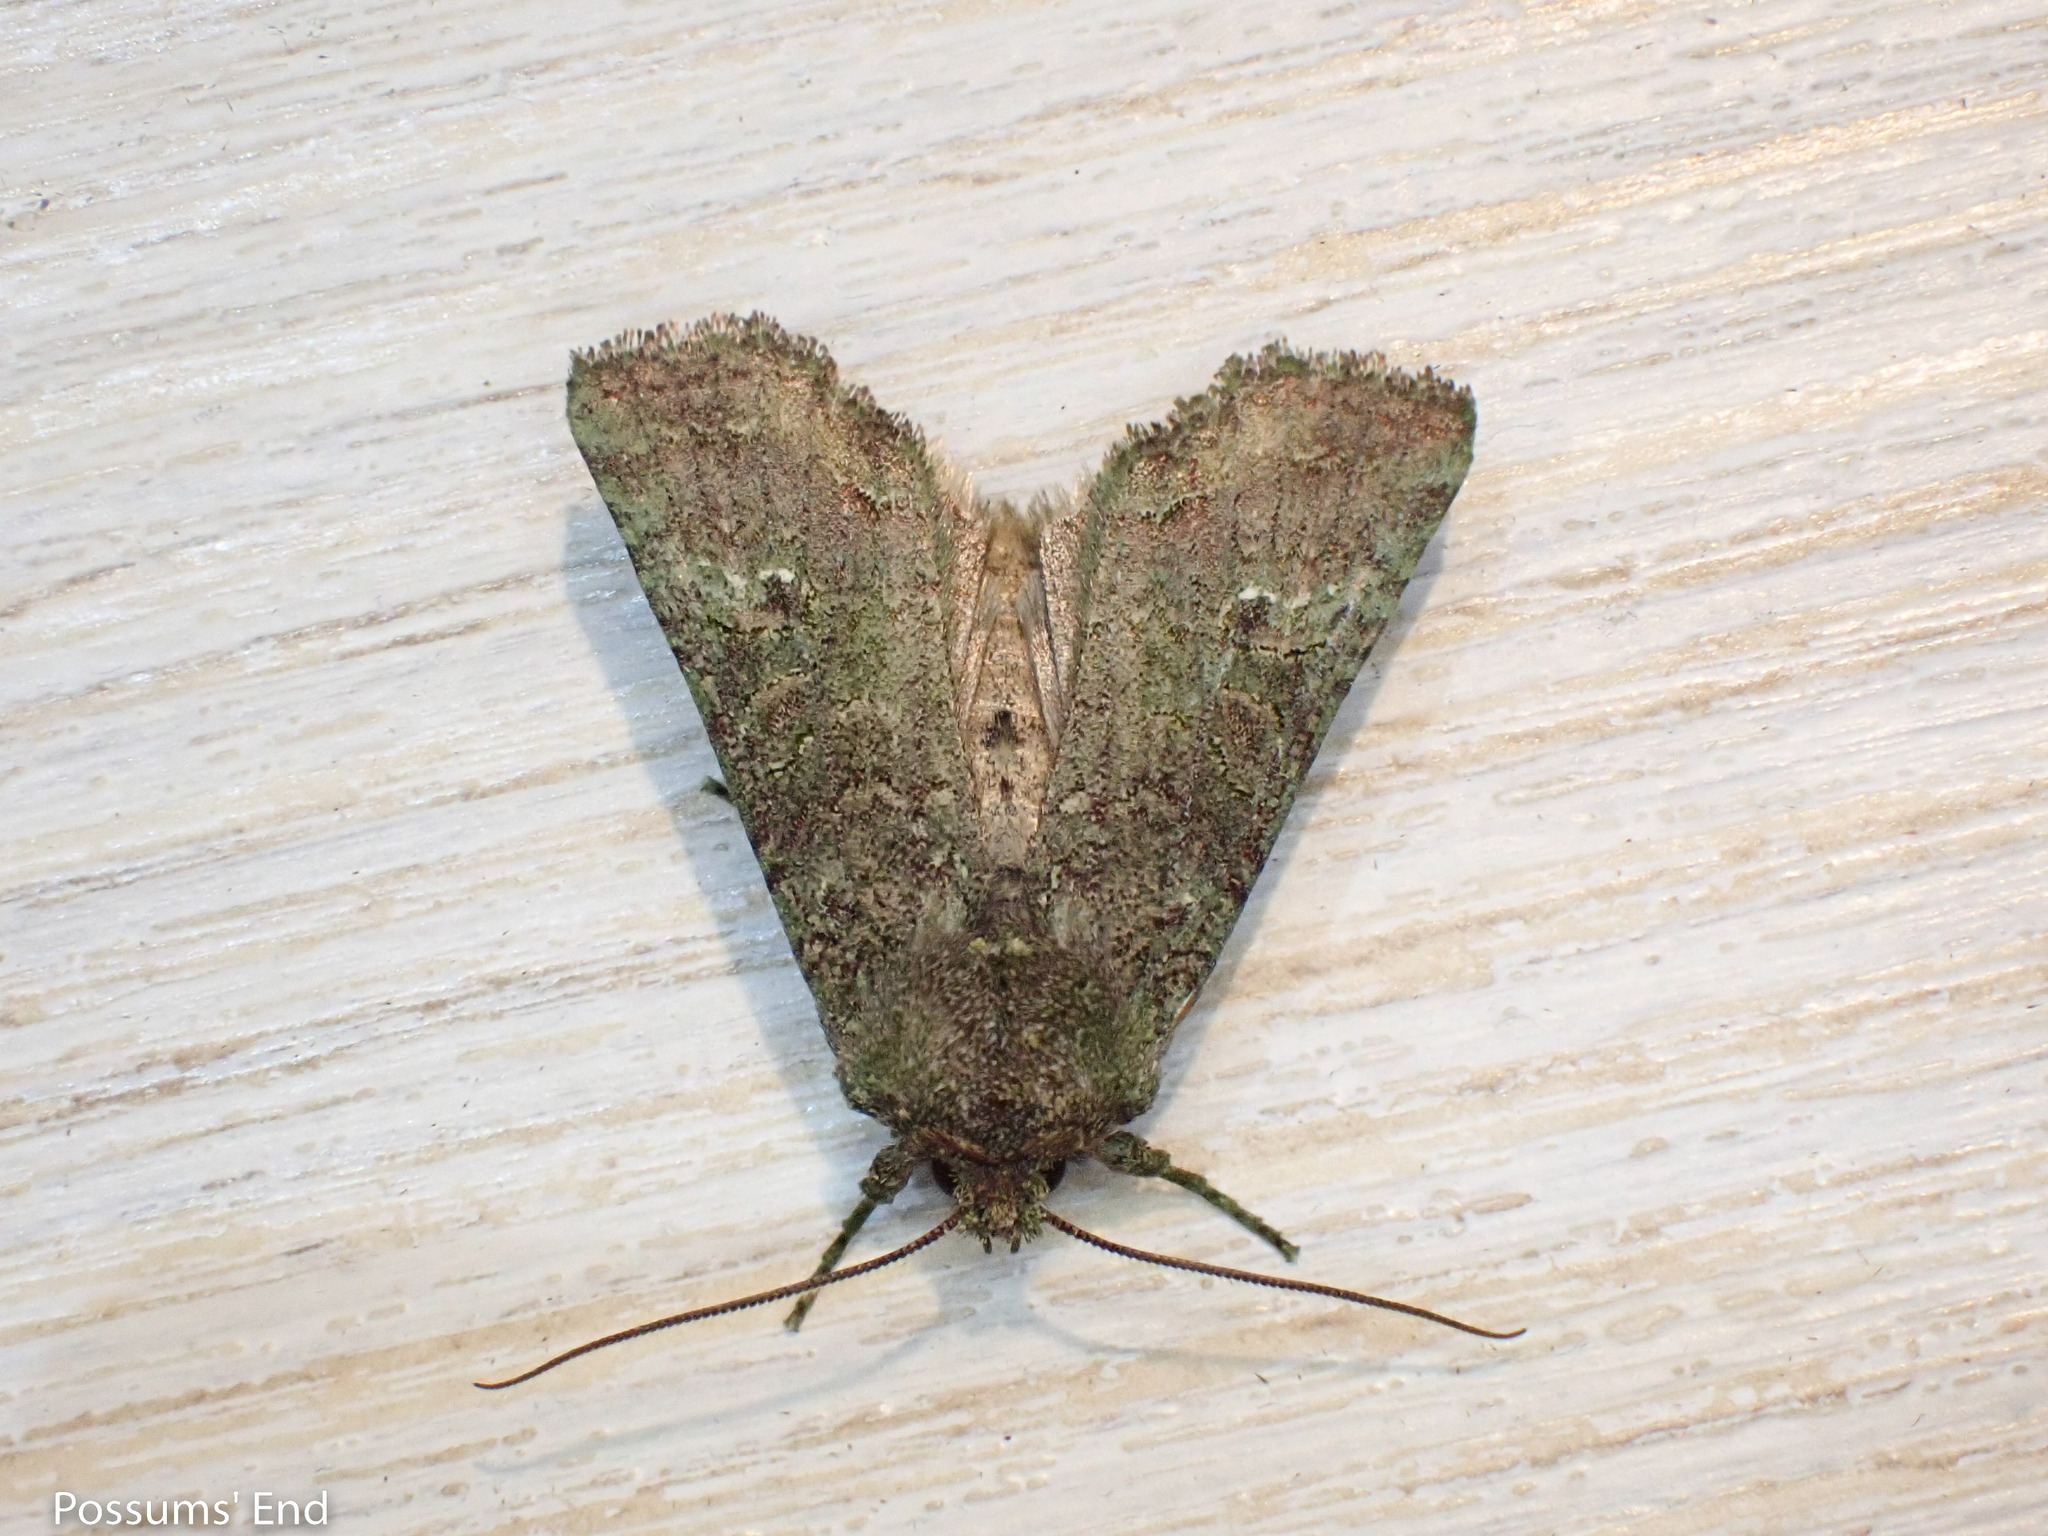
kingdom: Animalia
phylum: Arthropoda
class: Insecta
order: Lepidoptera
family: Noctuidae
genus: Meterana
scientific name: Meterana levis
